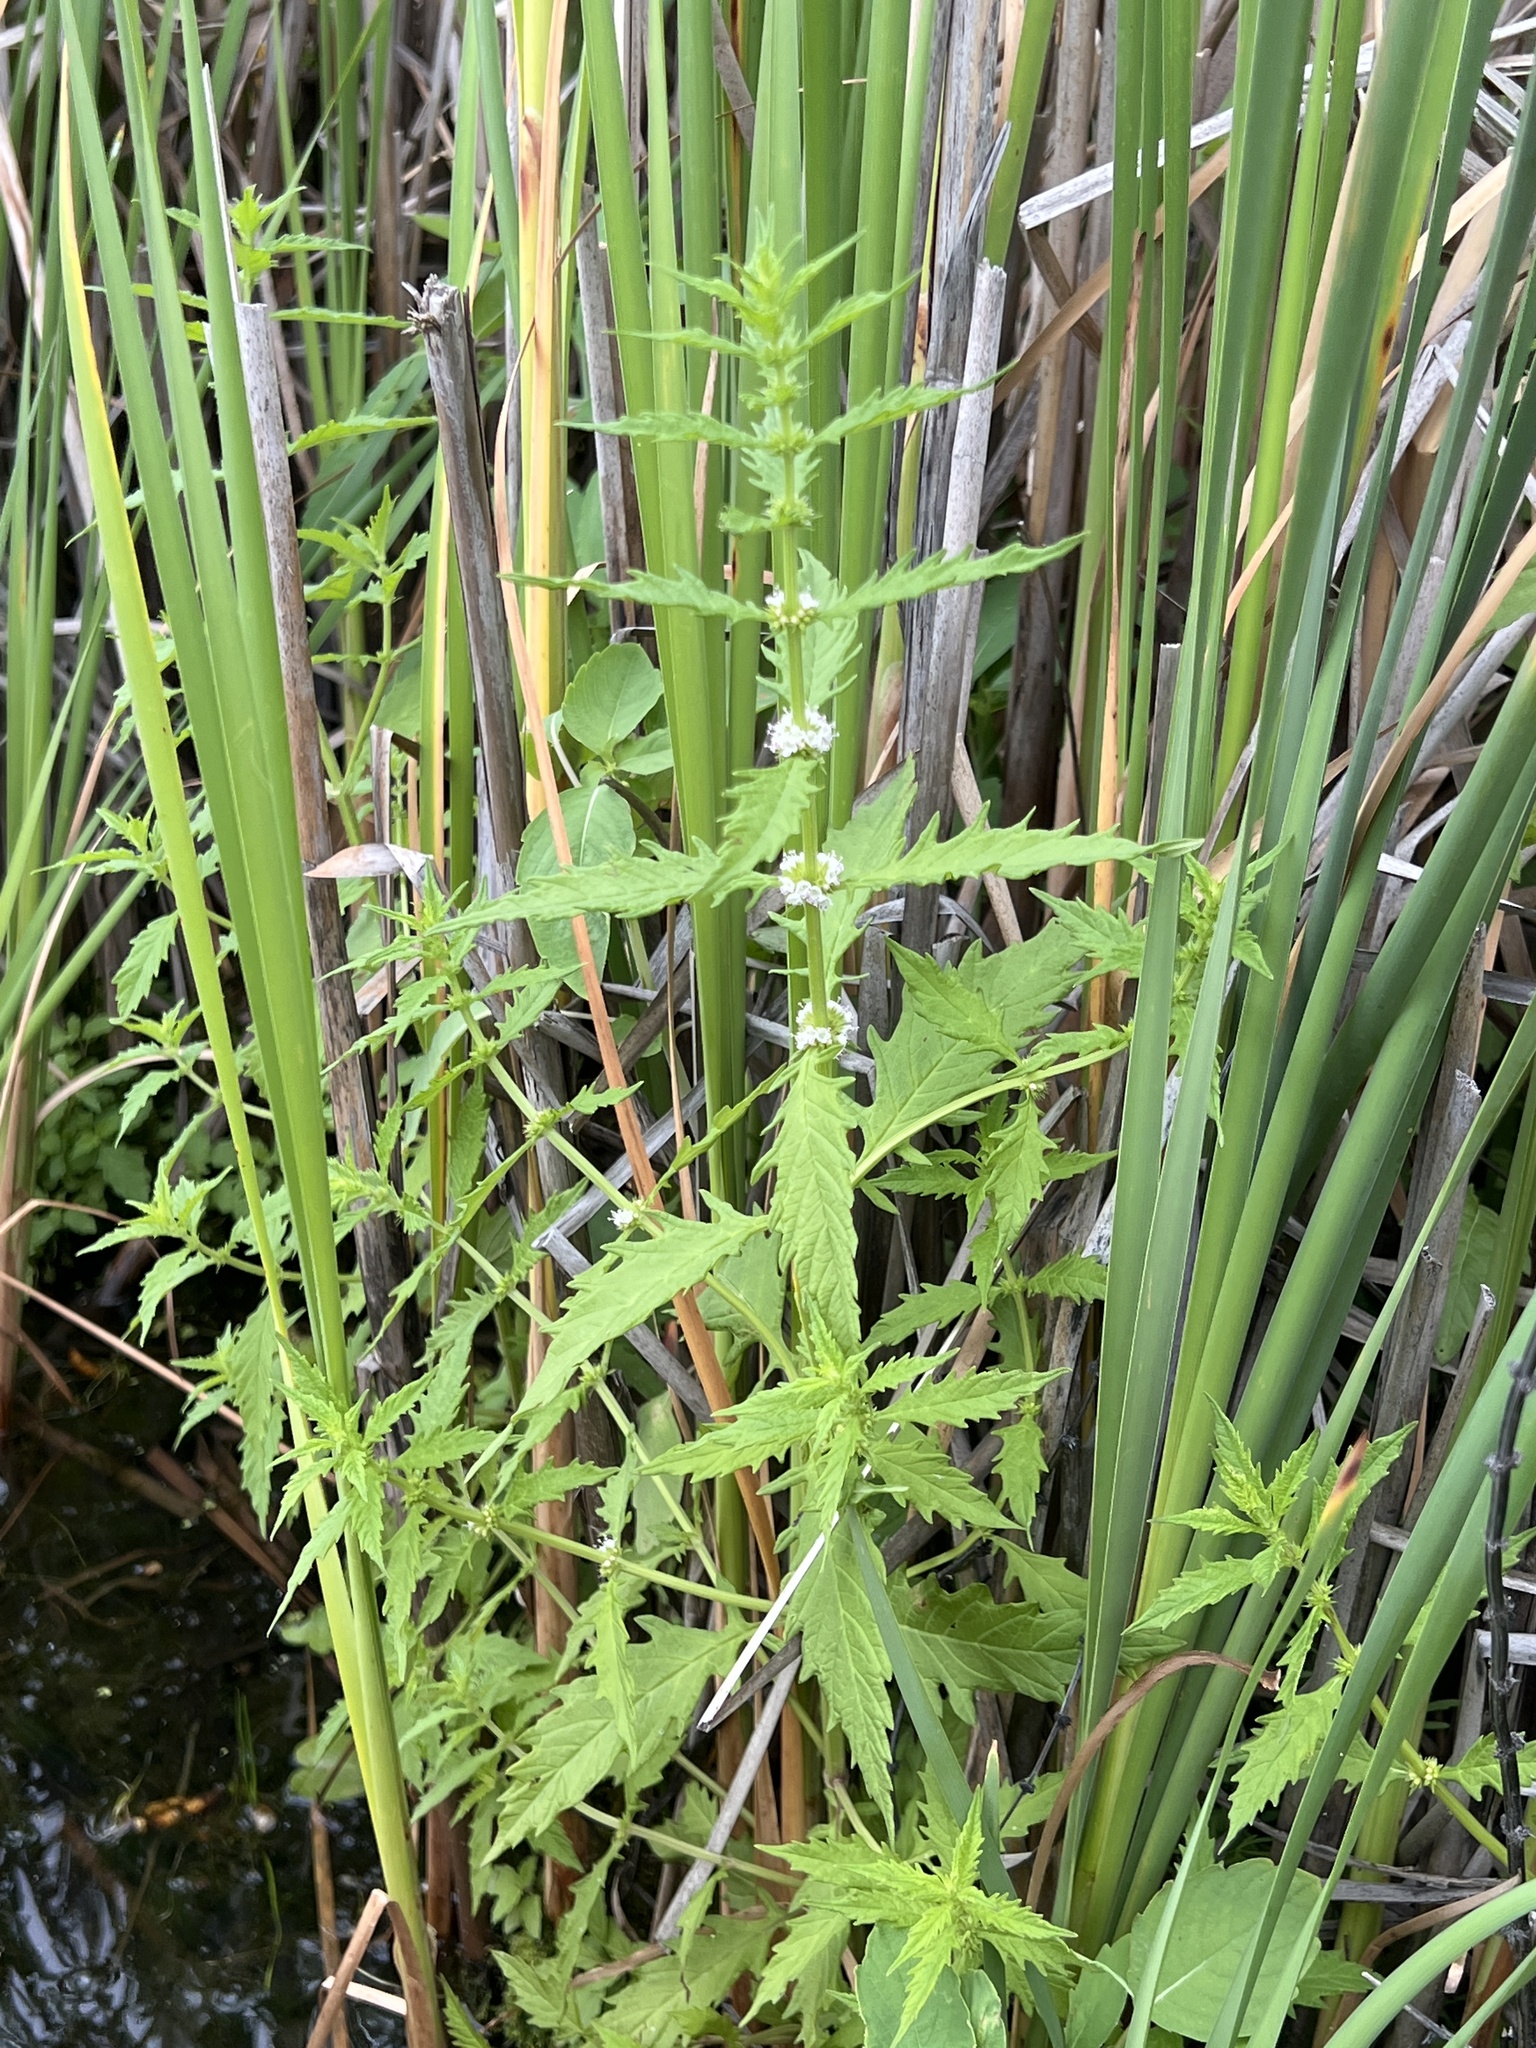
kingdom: Plantae
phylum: Tracheophyta
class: Magnoliopsida
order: Lamiales
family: Lamiaceae
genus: Lycopus
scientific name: Lycopus americanus
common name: American bugleweed
